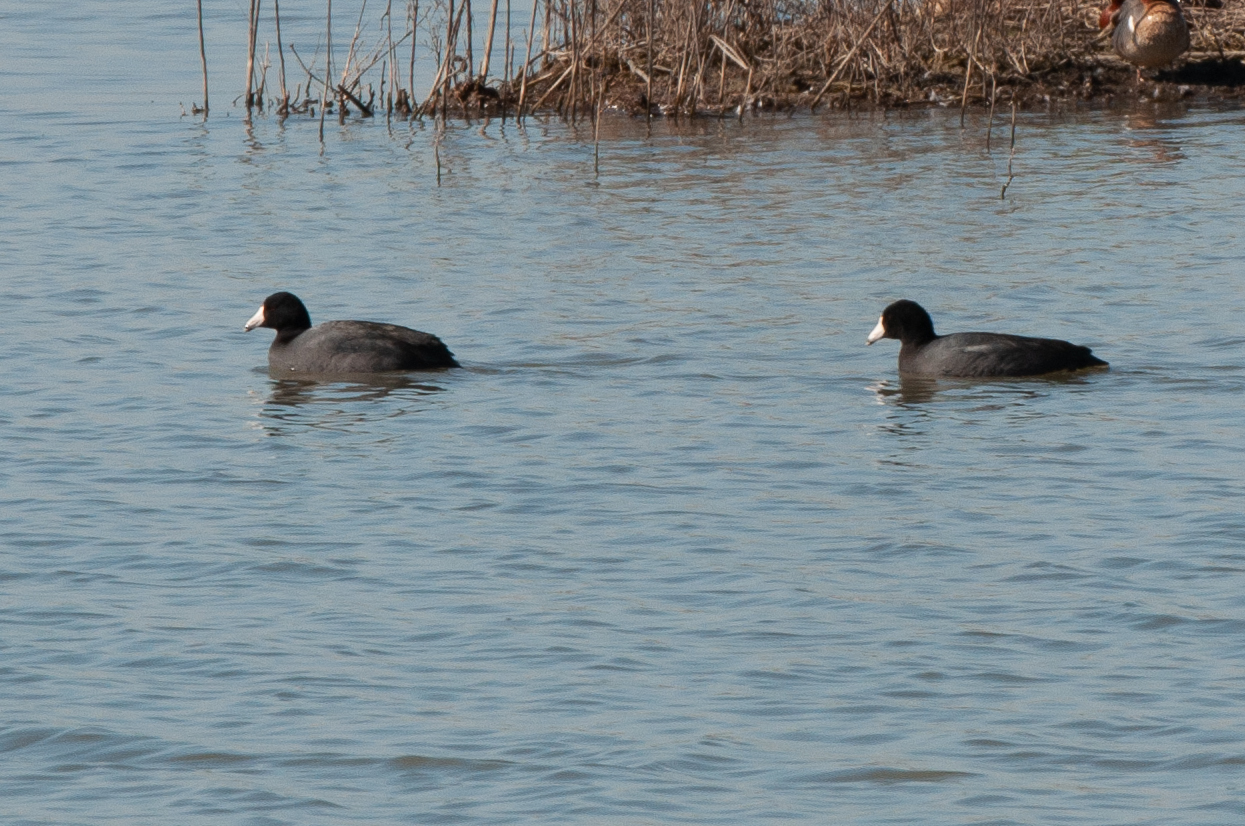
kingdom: Animalia
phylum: Chordata
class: Aves
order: Gruiformes
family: Rallidae
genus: Fulica
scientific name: Fulica americana
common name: American coot
